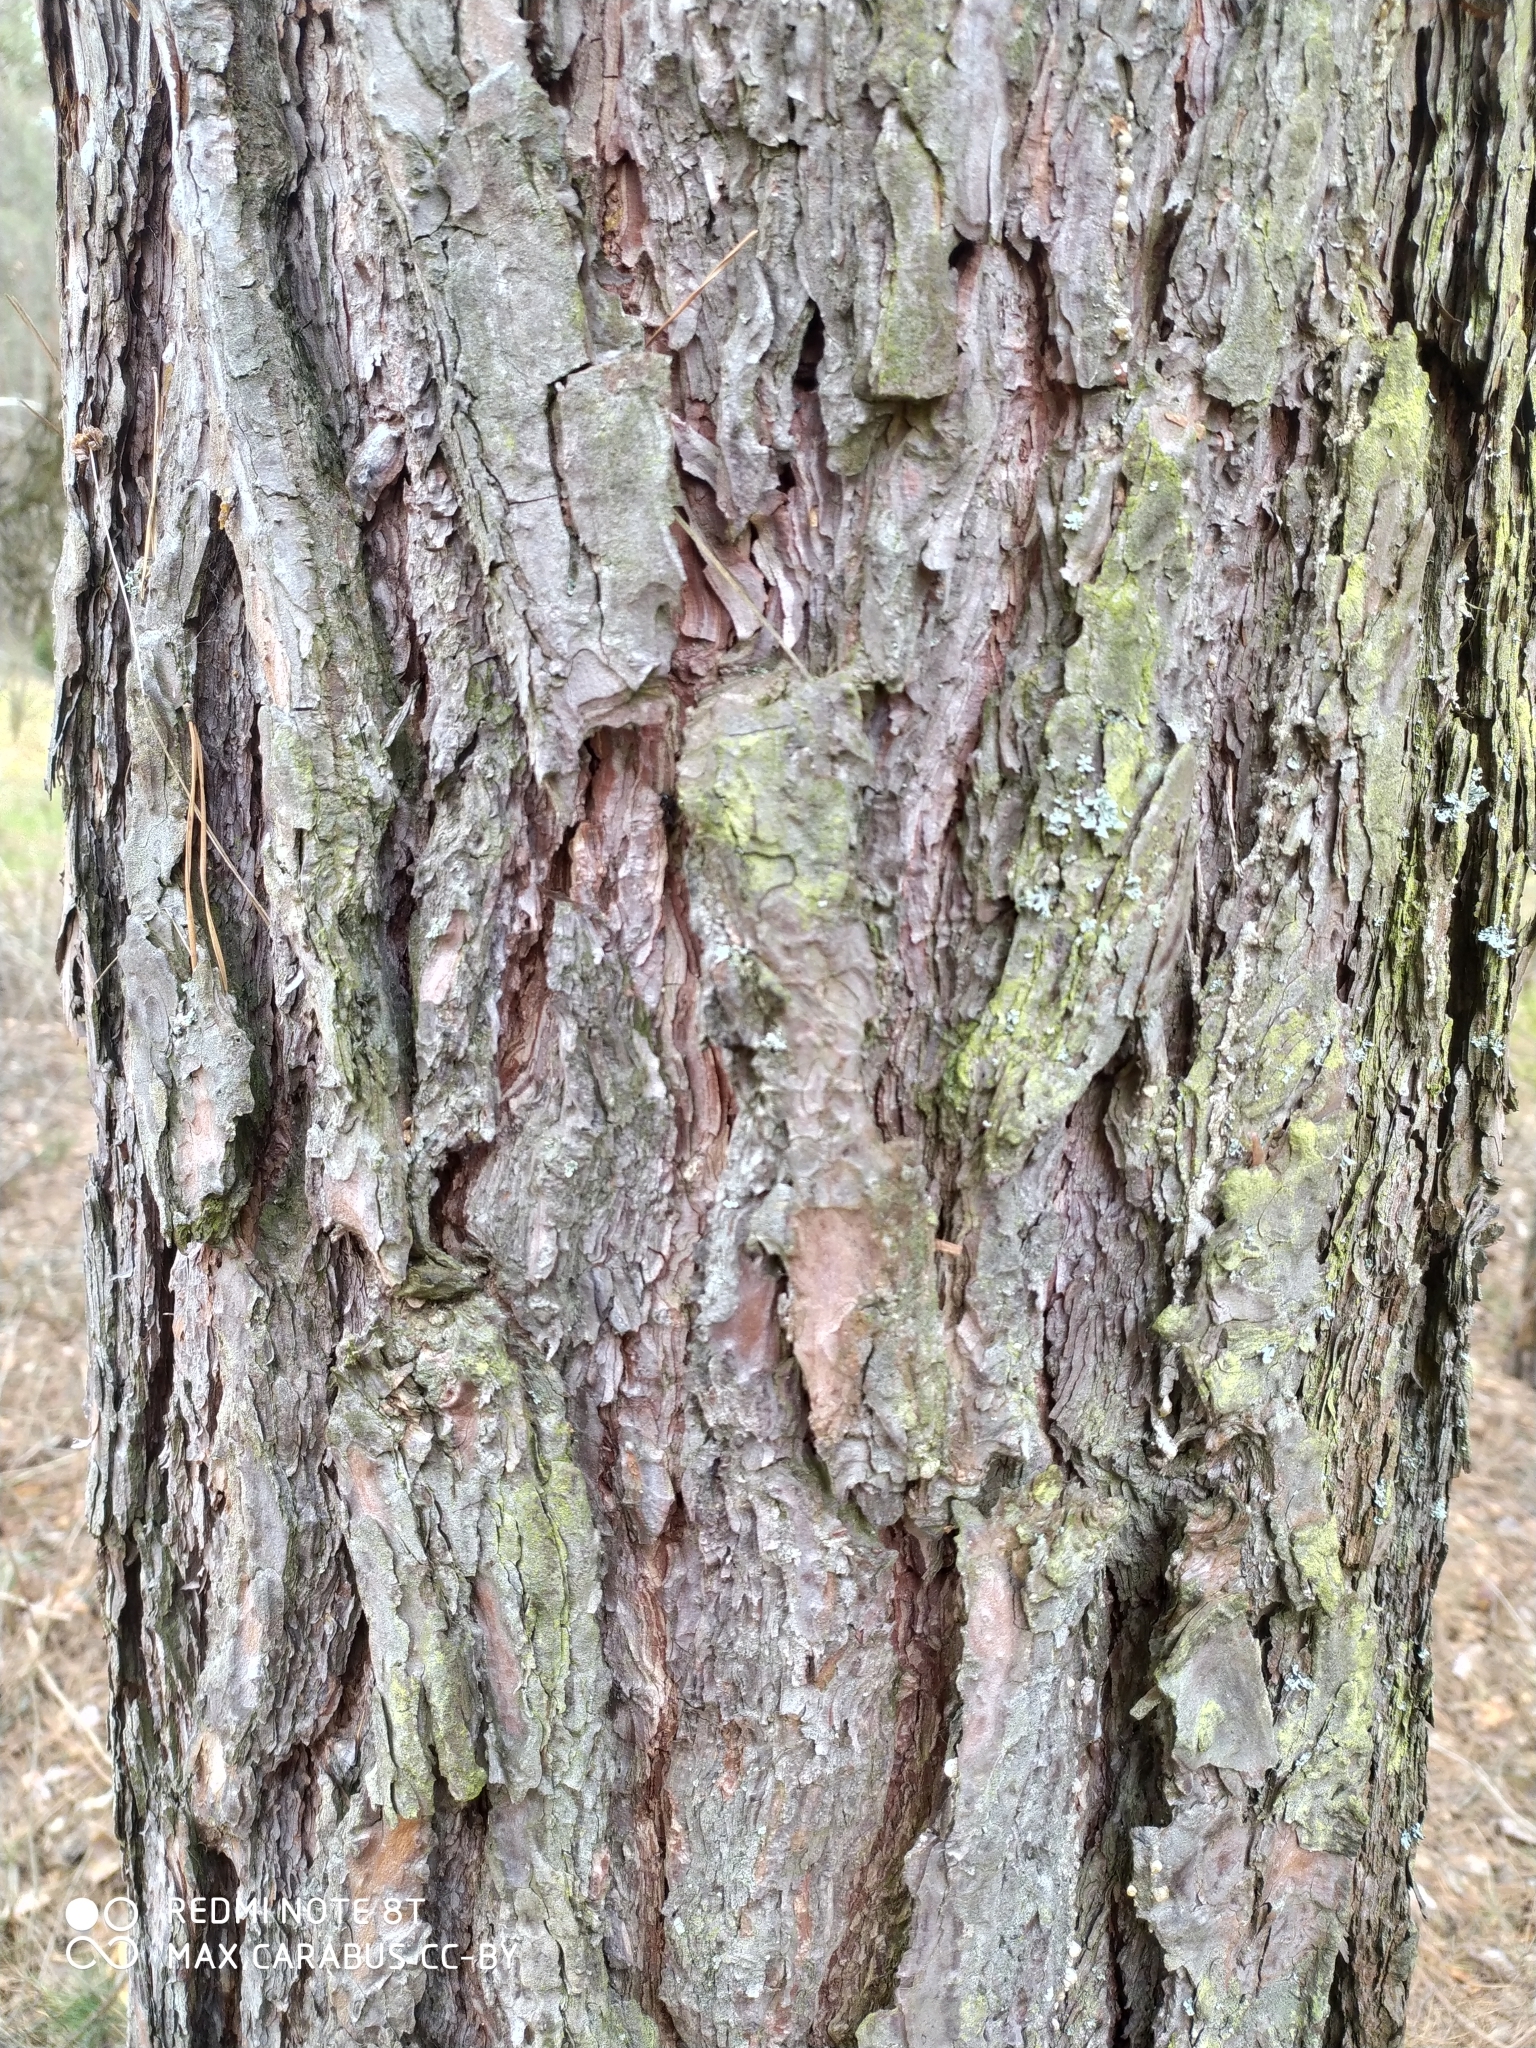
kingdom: Plantae
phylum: Tracheophyta
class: Pinopsida
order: Pinales
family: Pinaceae
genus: Pinus
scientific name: Pinus sylvestris
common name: Scots pine
